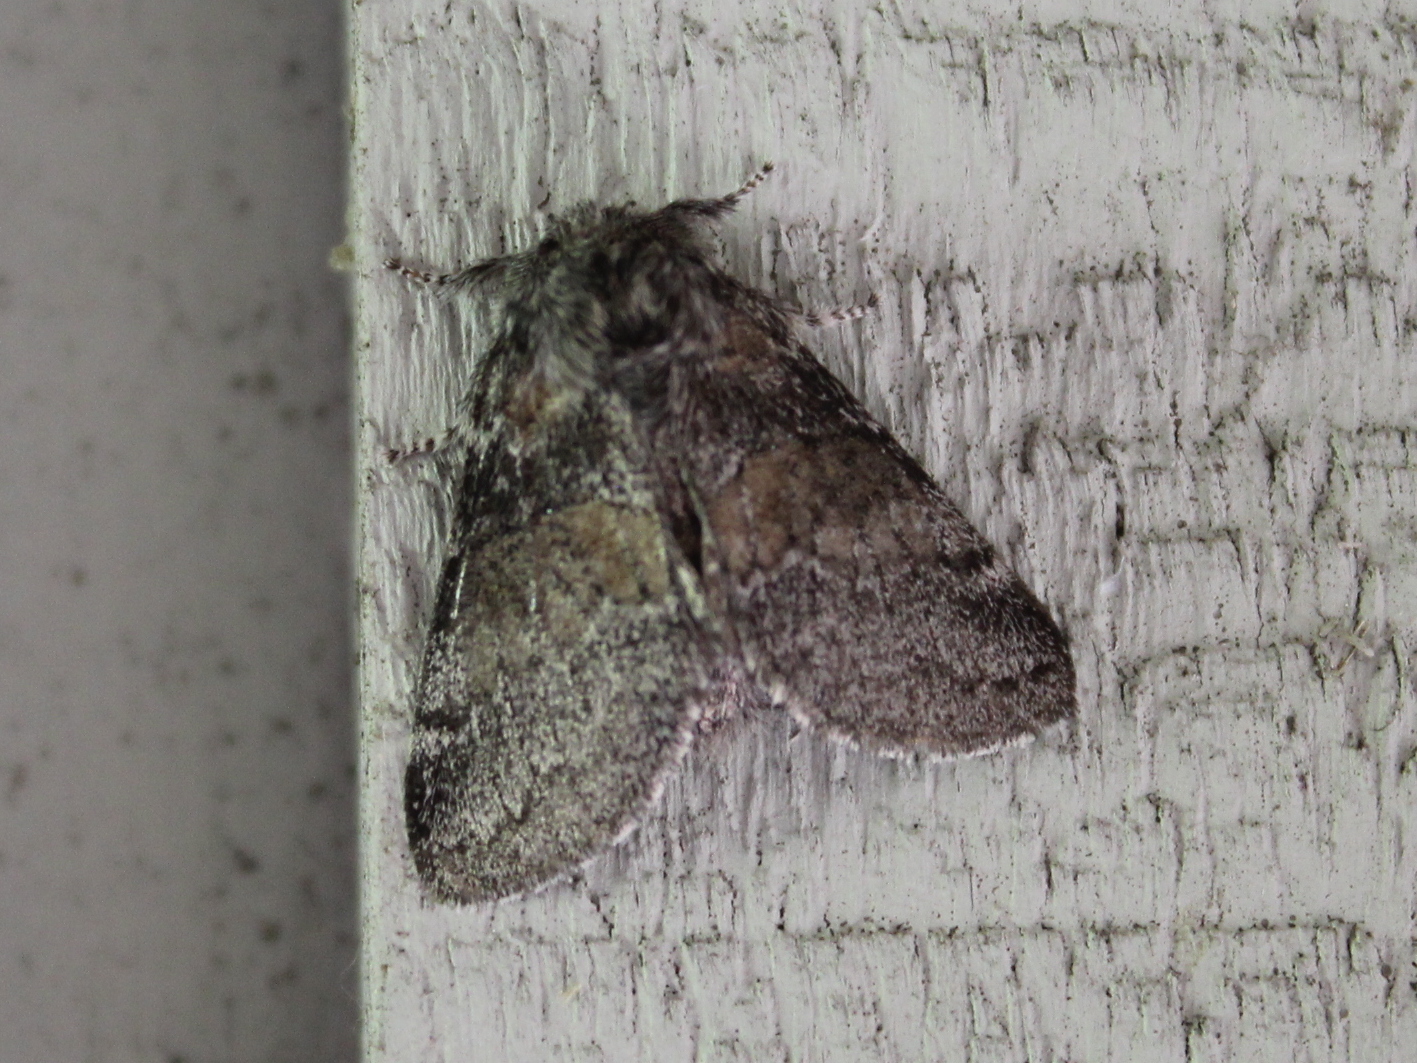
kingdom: Animalia
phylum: Arthropoda
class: Insecta
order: Lepidoptera
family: Notodontidae
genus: Gluphisia
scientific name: Gluphisia septentrionis
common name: Common gluphisia
